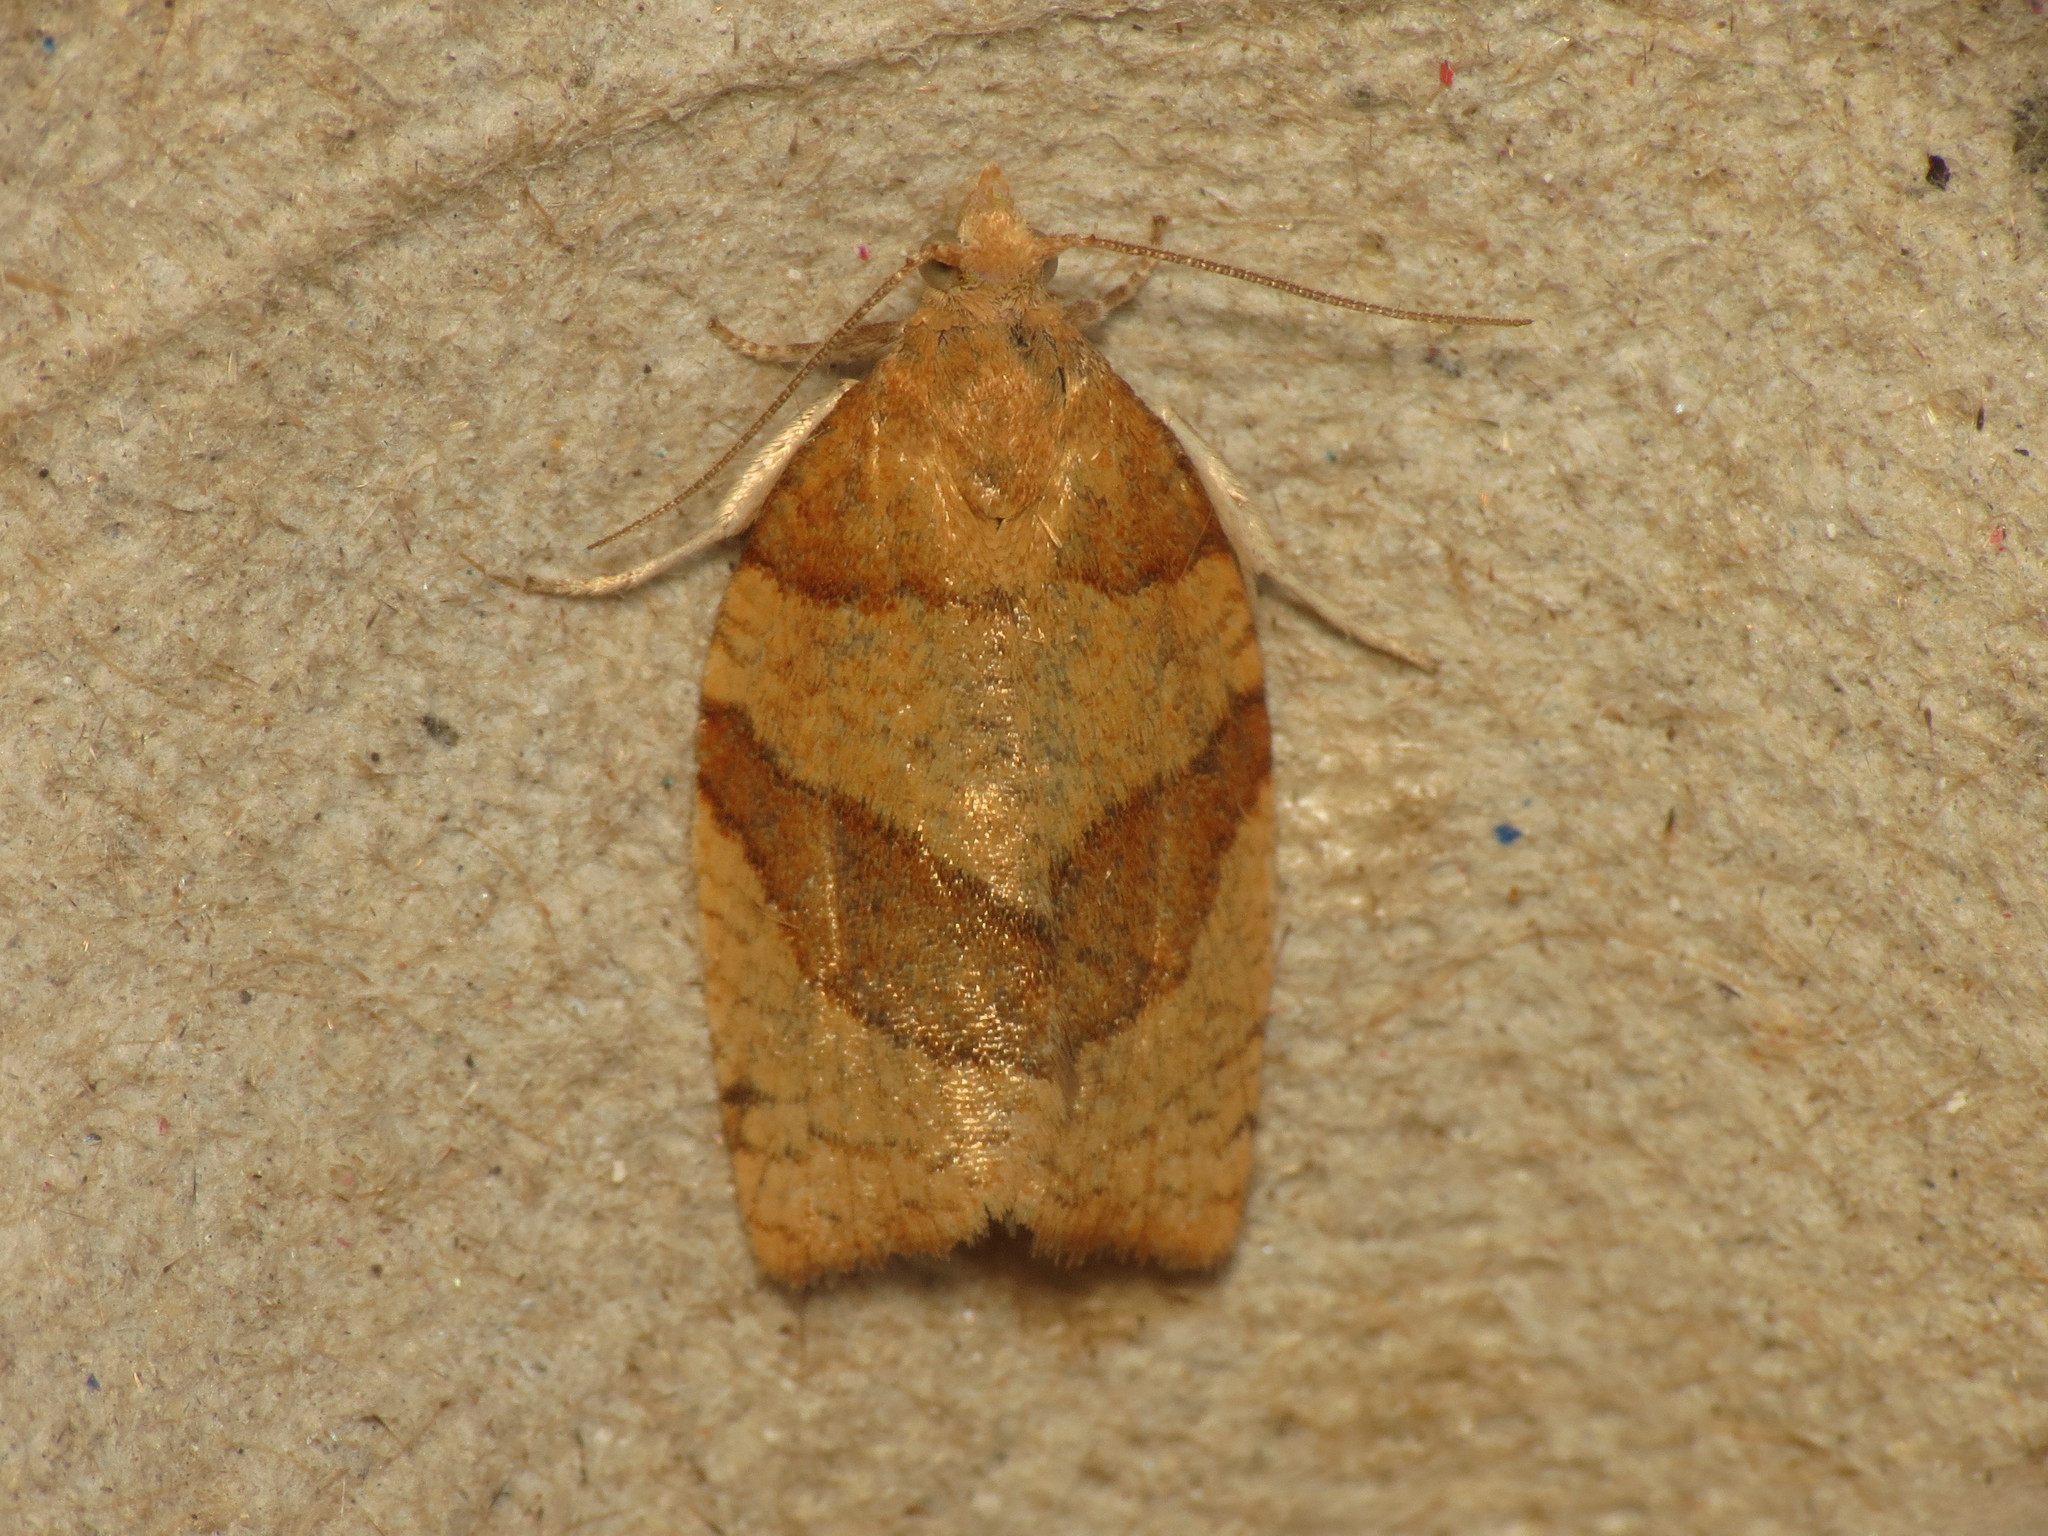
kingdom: Animalia
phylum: Arthropoda
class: Insecta
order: Lepidoptera
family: Tortricidae
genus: Pandemis
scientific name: Pandemis cerasana
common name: Barred fruit-tree tortrix
